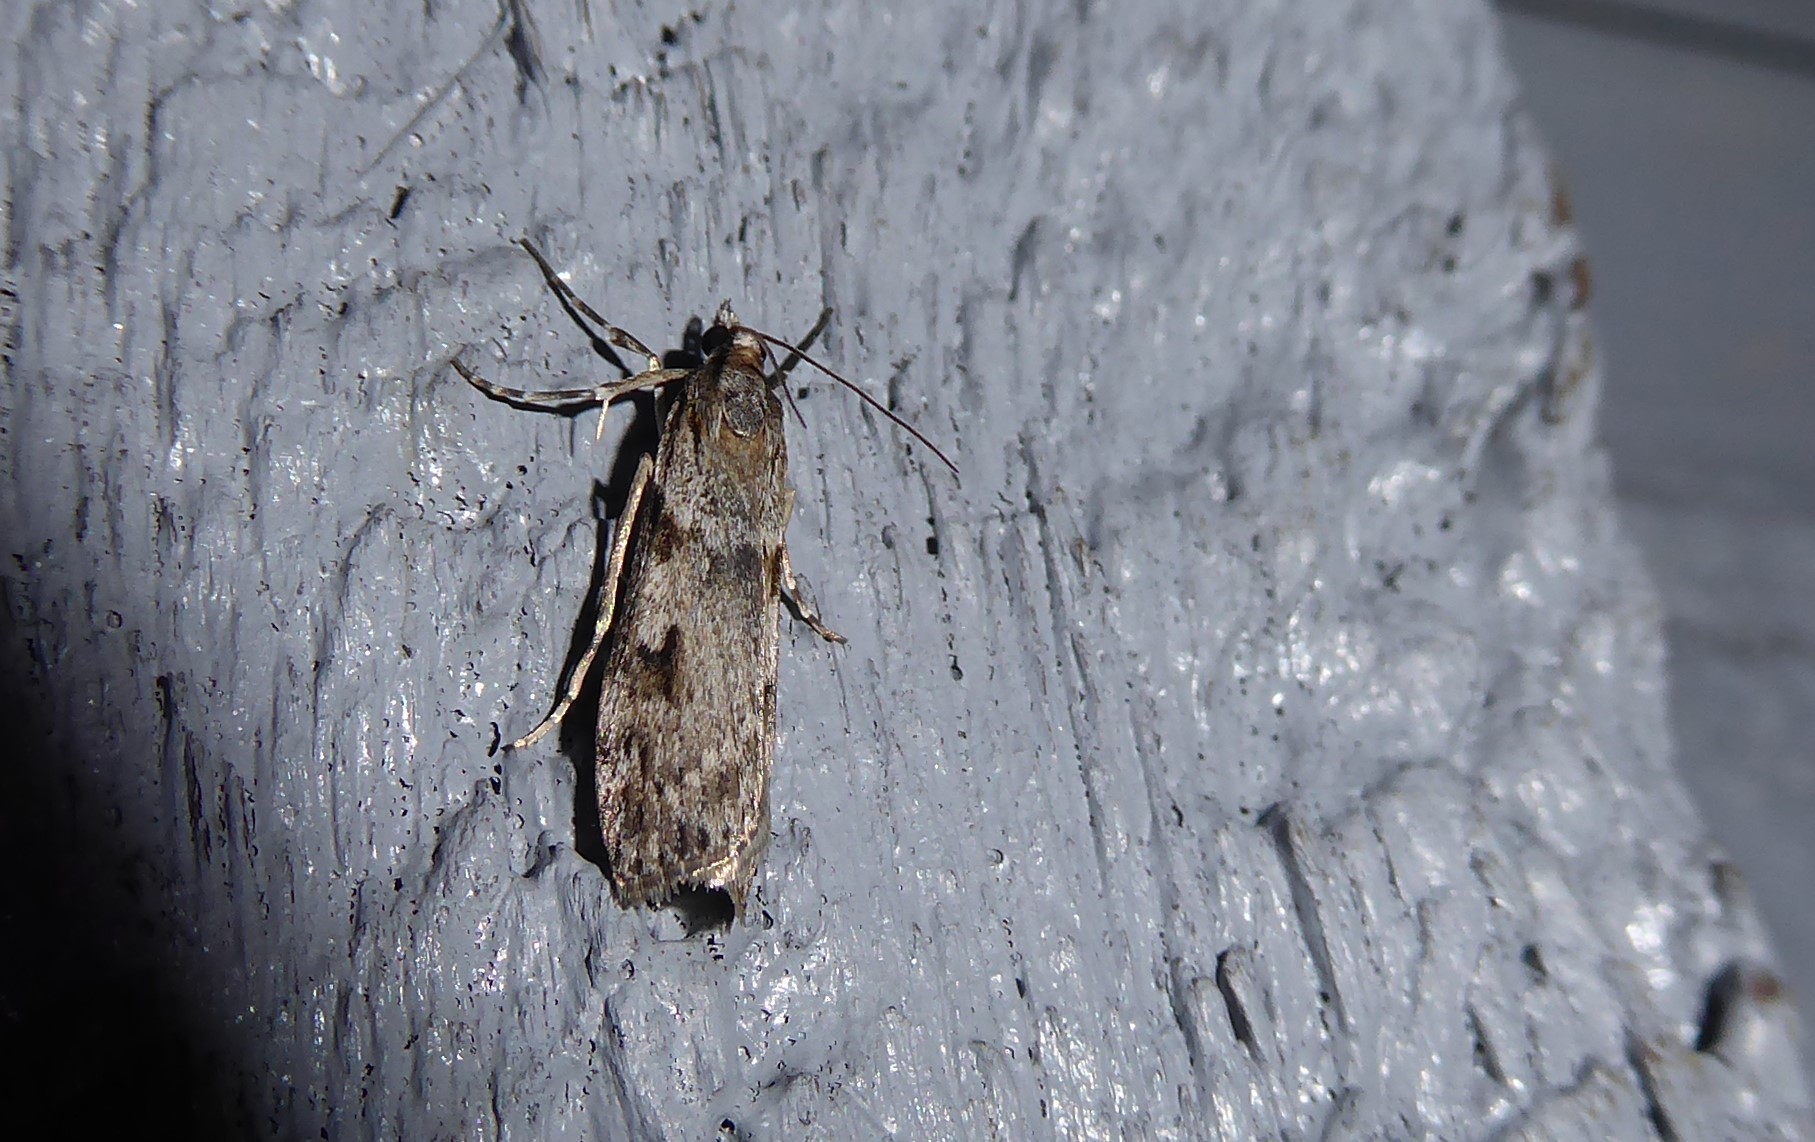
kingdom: Animalia
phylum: Arthropoda
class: Insecta
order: Lepidoptera
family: Crambidae
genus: Scoparia
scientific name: Scoparia halopis
